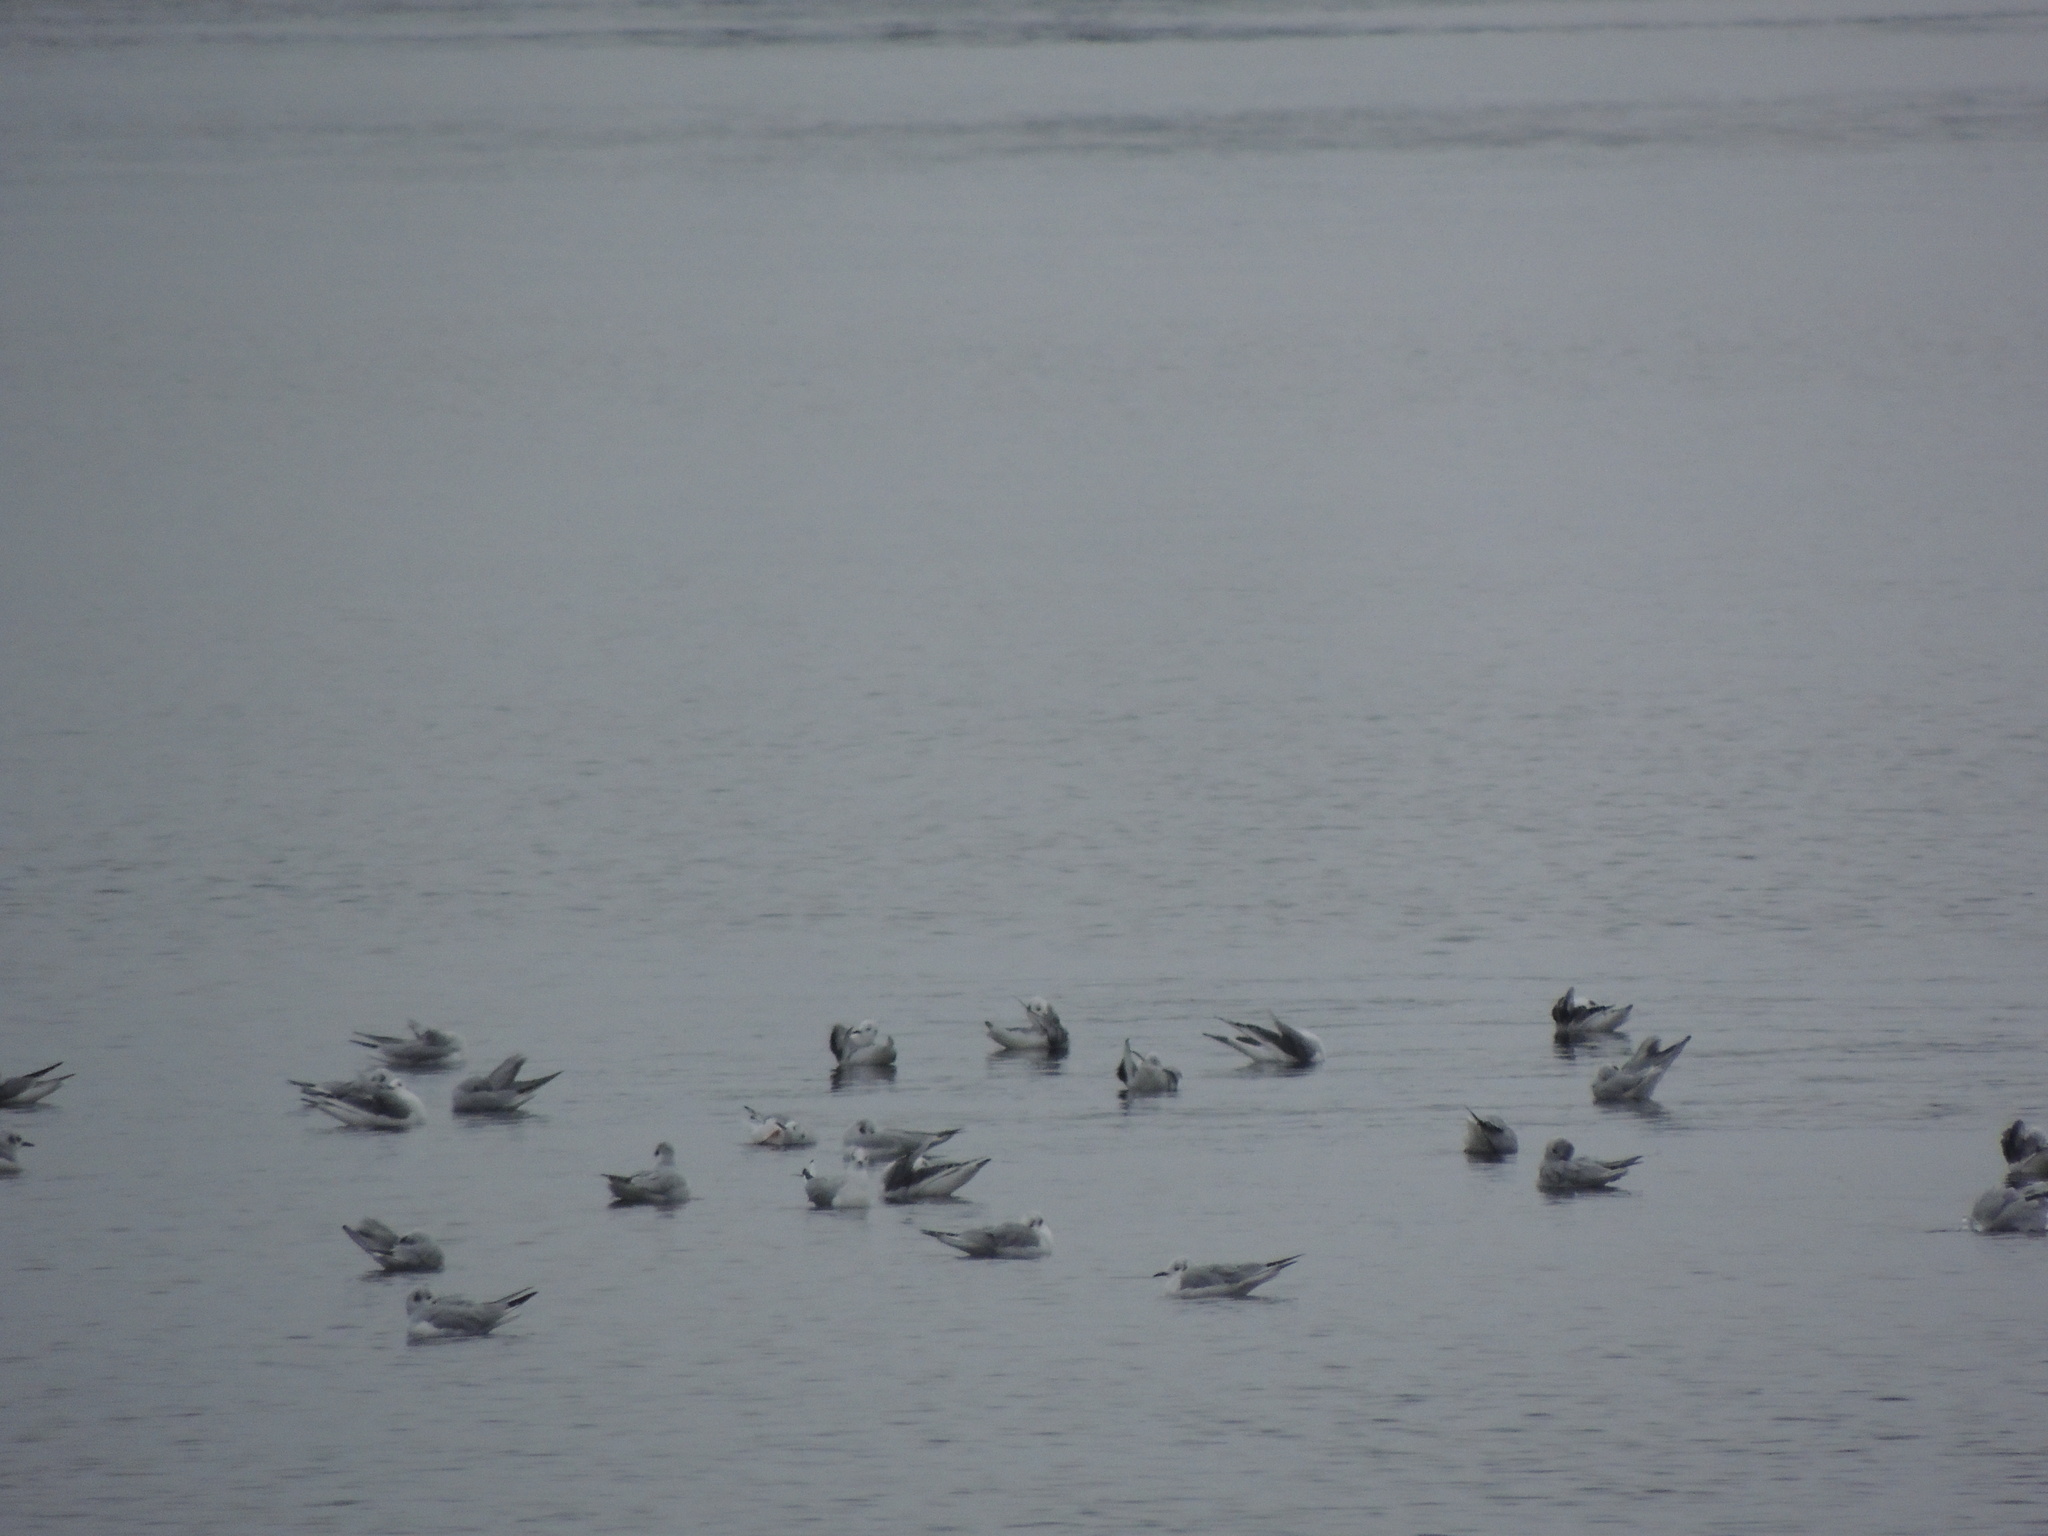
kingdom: Animalia
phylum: Chordata
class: Aves
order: Charadriiformes
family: Laridae
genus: Chroicocephalus
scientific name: Chroicocephalus philadelphia
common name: Bonaparte's gull
